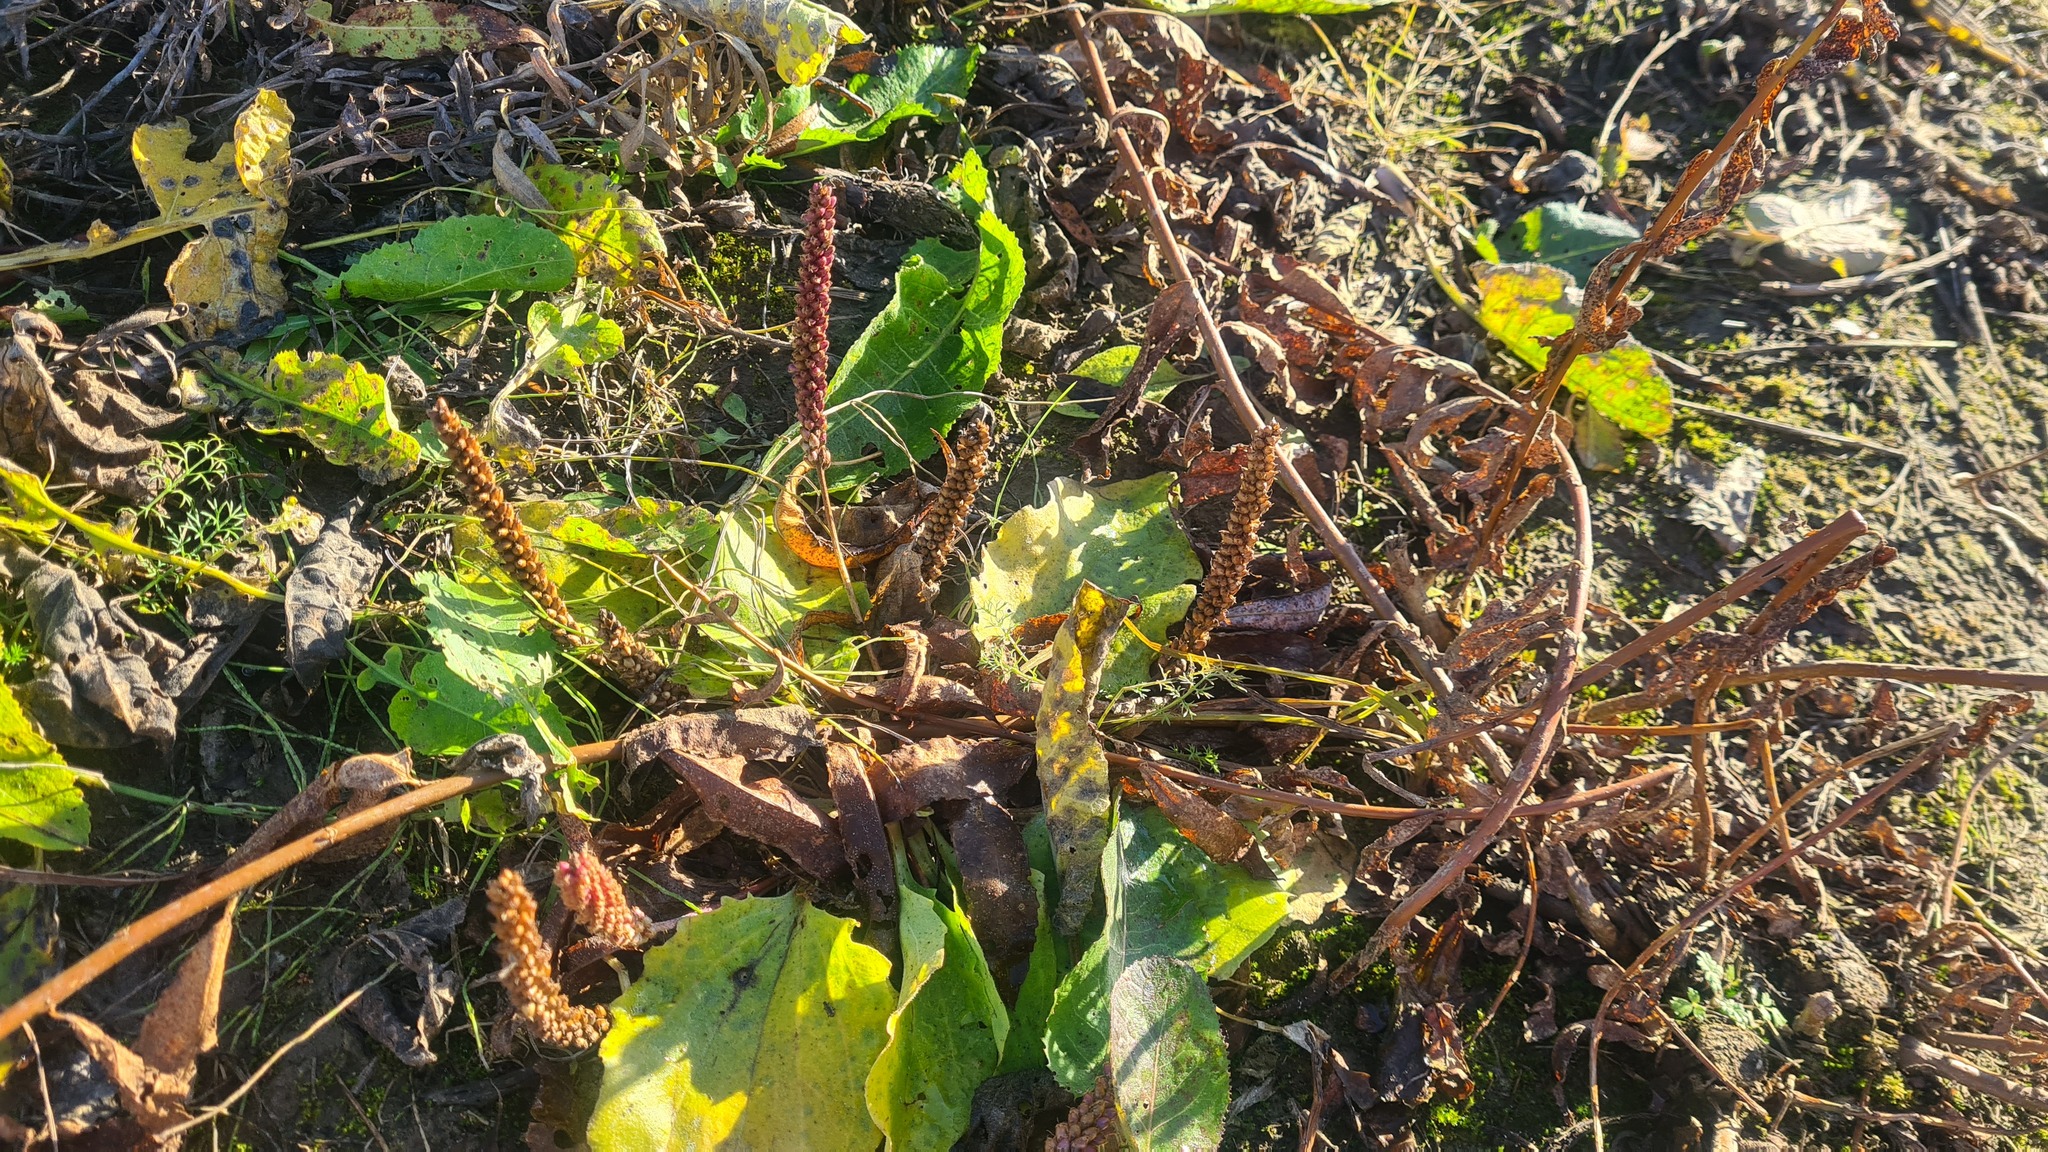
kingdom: Plantae
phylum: Tracheophyta
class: Magnoliopsida
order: Lamiales
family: Plantaginaceae
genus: Plantago
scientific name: Plantago major
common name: Common plantain
